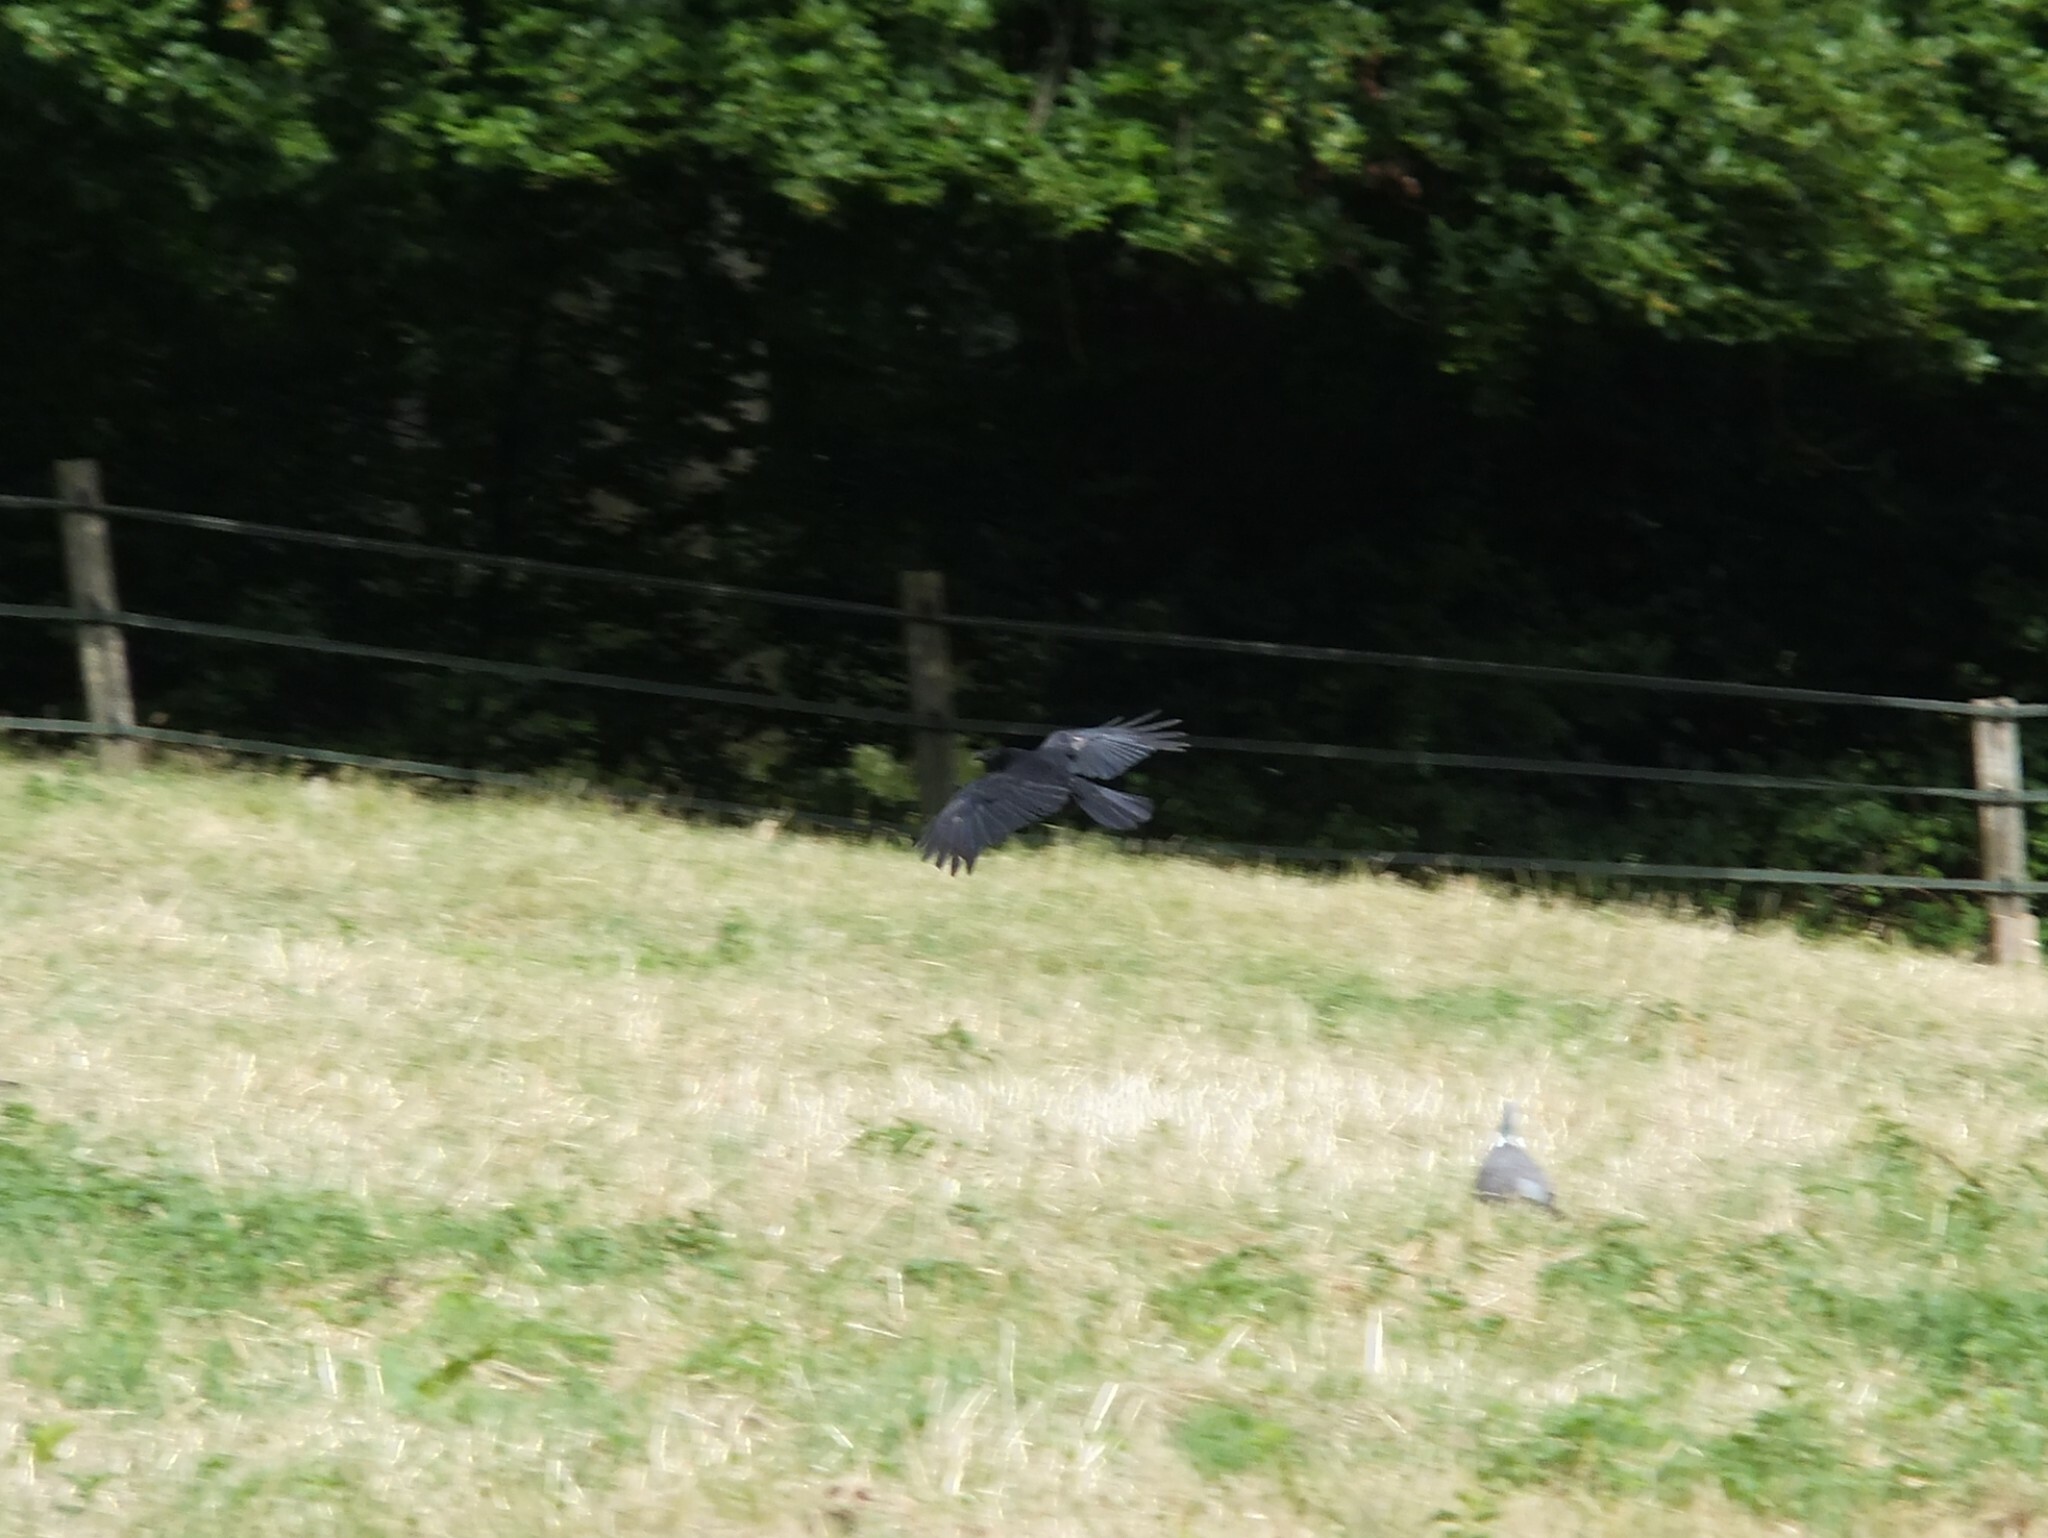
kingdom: Animalia
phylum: Chordata
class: Aves
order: Passeriformes
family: Corvidae
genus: Corvus
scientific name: Corvus corone
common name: Carrion crow
